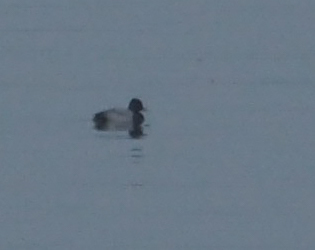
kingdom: Animalia
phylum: Chordata
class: Aves
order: Anseriformes
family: Anatidae
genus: Aythya
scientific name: Aythya affinis
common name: Lesser scaup
